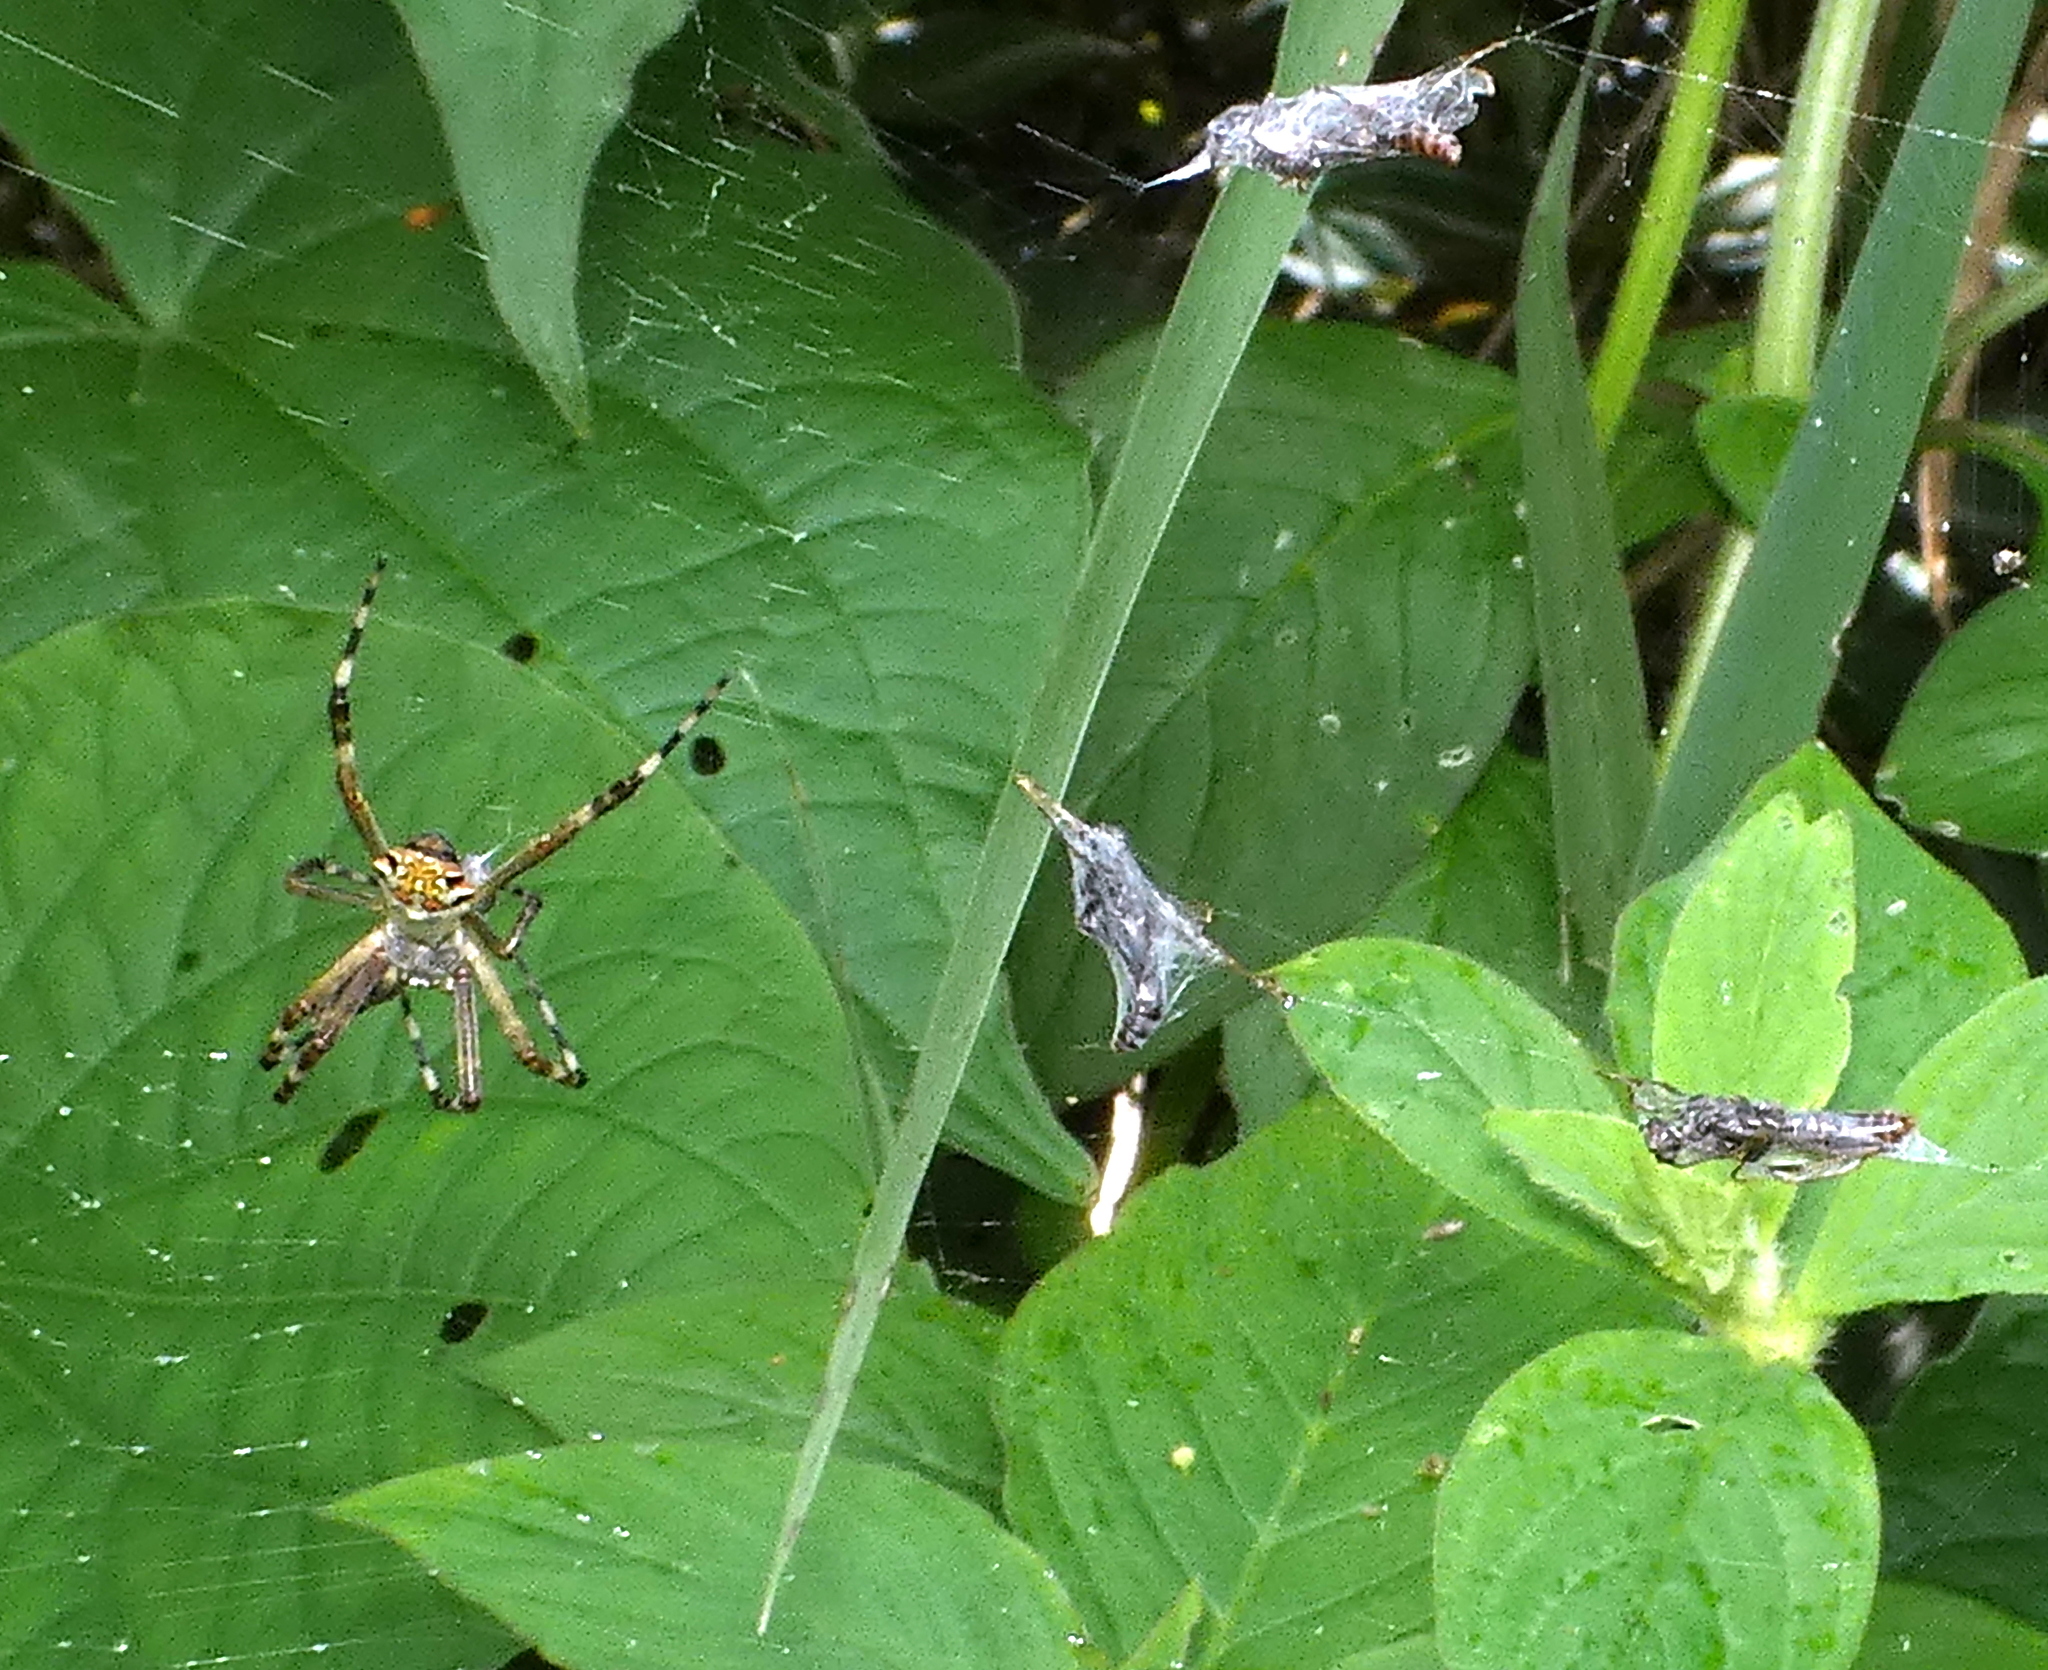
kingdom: Animalia
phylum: Arthropoda
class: Arachnida
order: Araneae
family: Araneidae
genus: Argiope
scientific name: Argiope argentata
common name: Orb weavers
